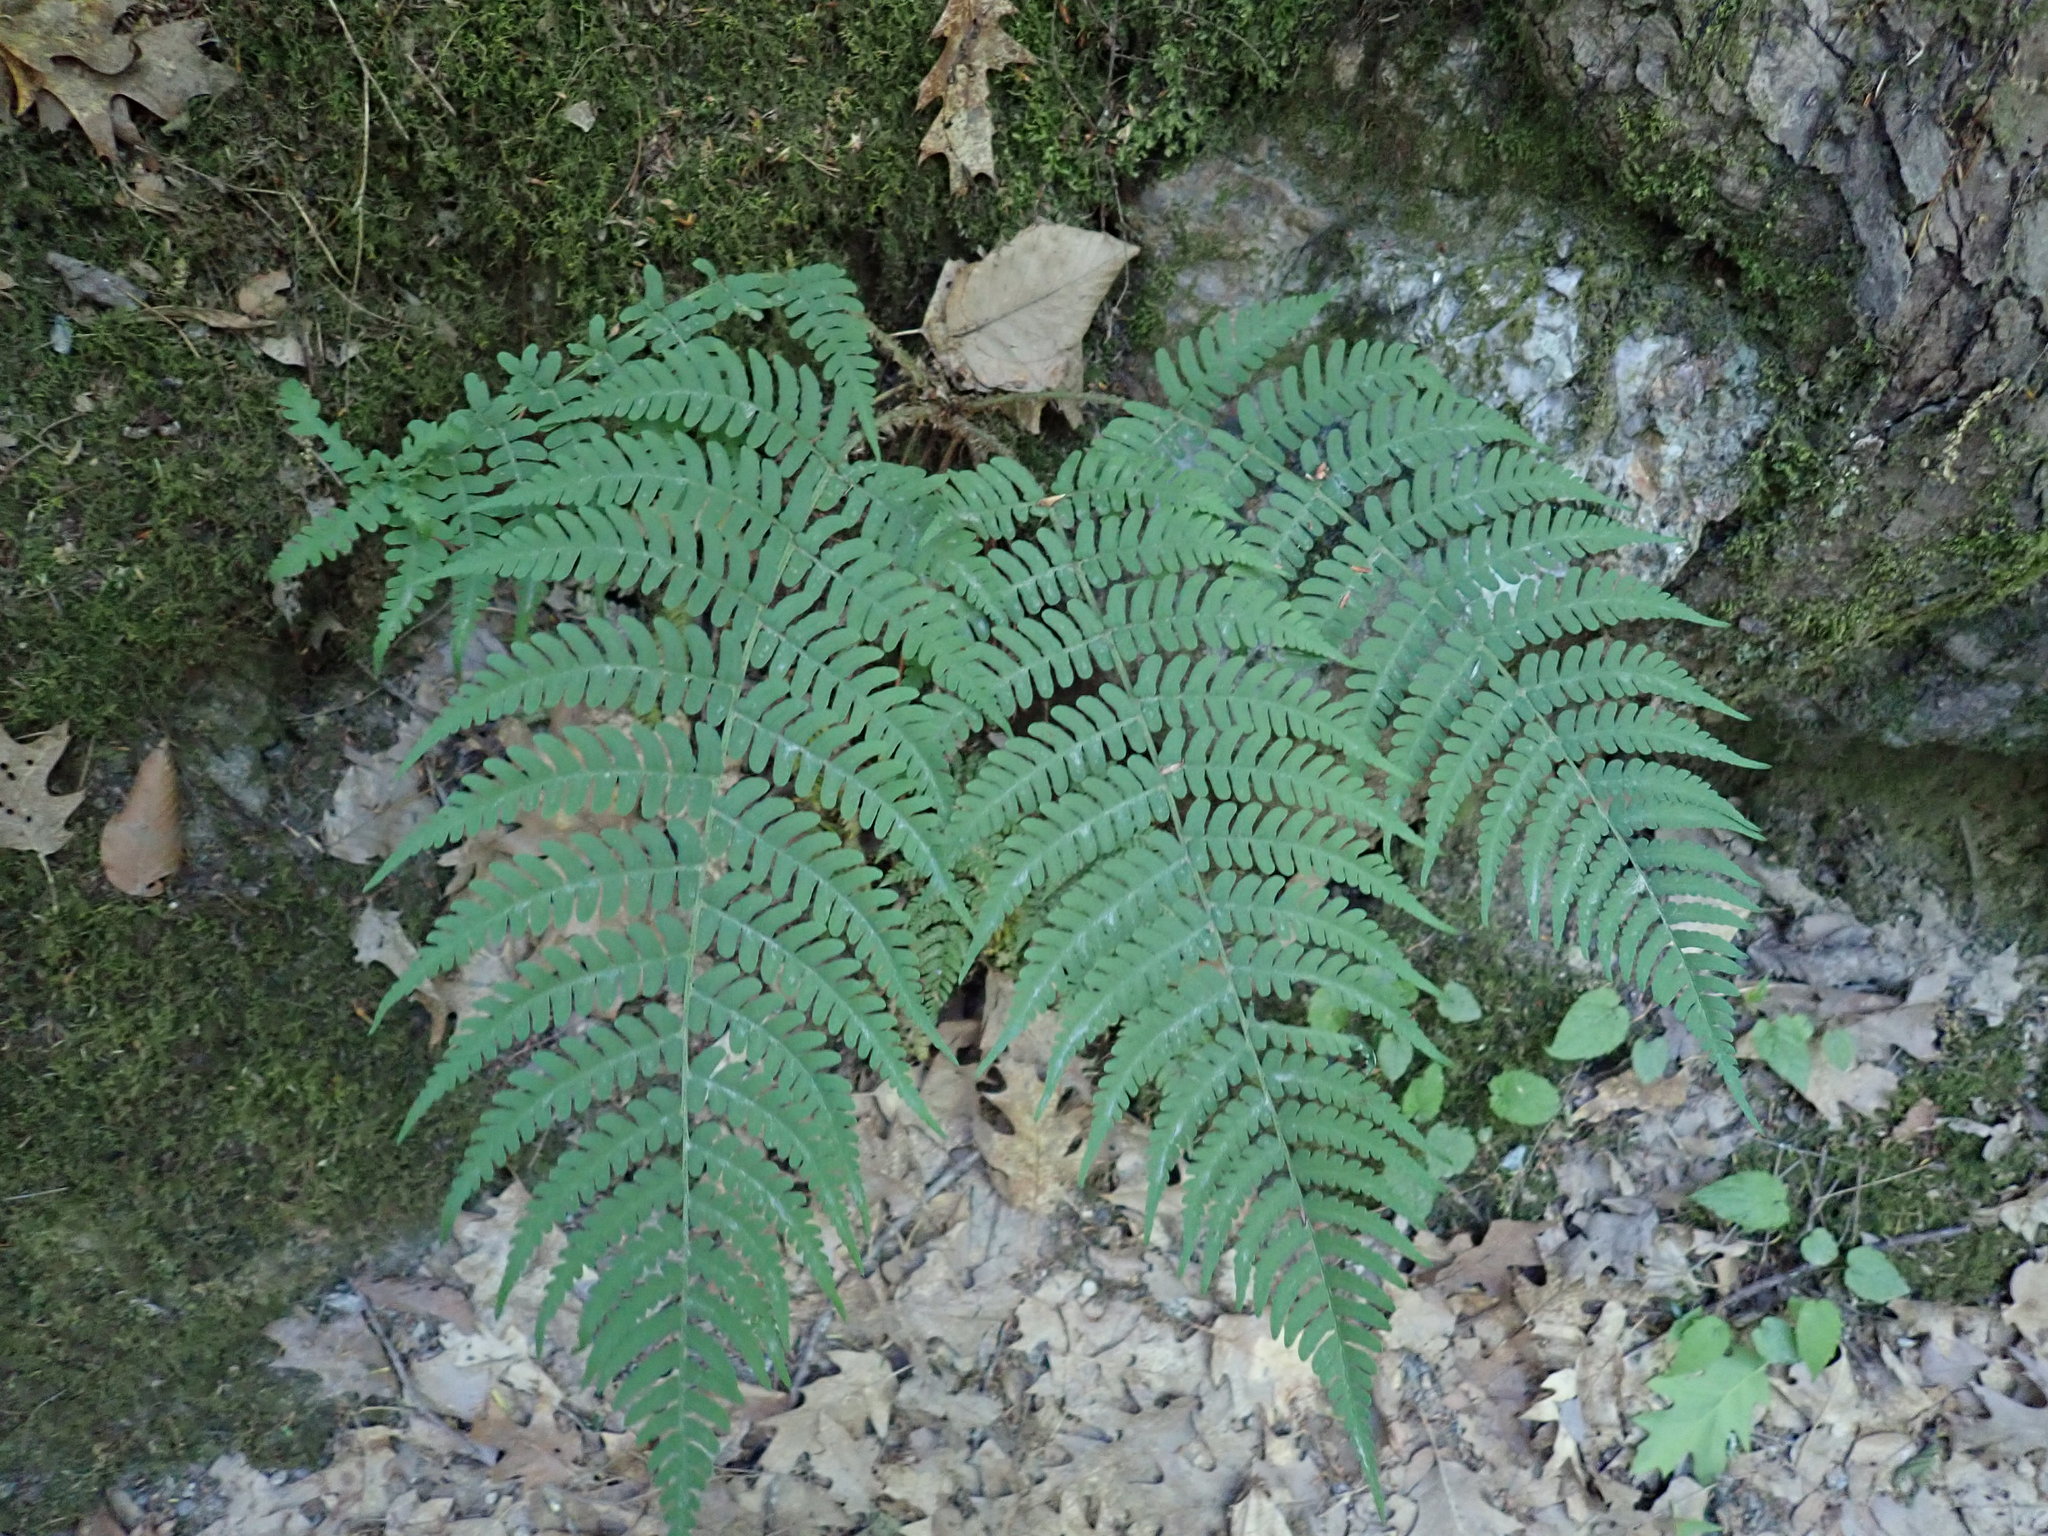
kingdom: Plantae
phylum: Tracheophyta
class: Polypodiopsida
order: Polypodiales
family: Dryopteridaceae
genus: Dryopteris
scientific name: Dryopteris marginalis
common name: Marginal wood fern
